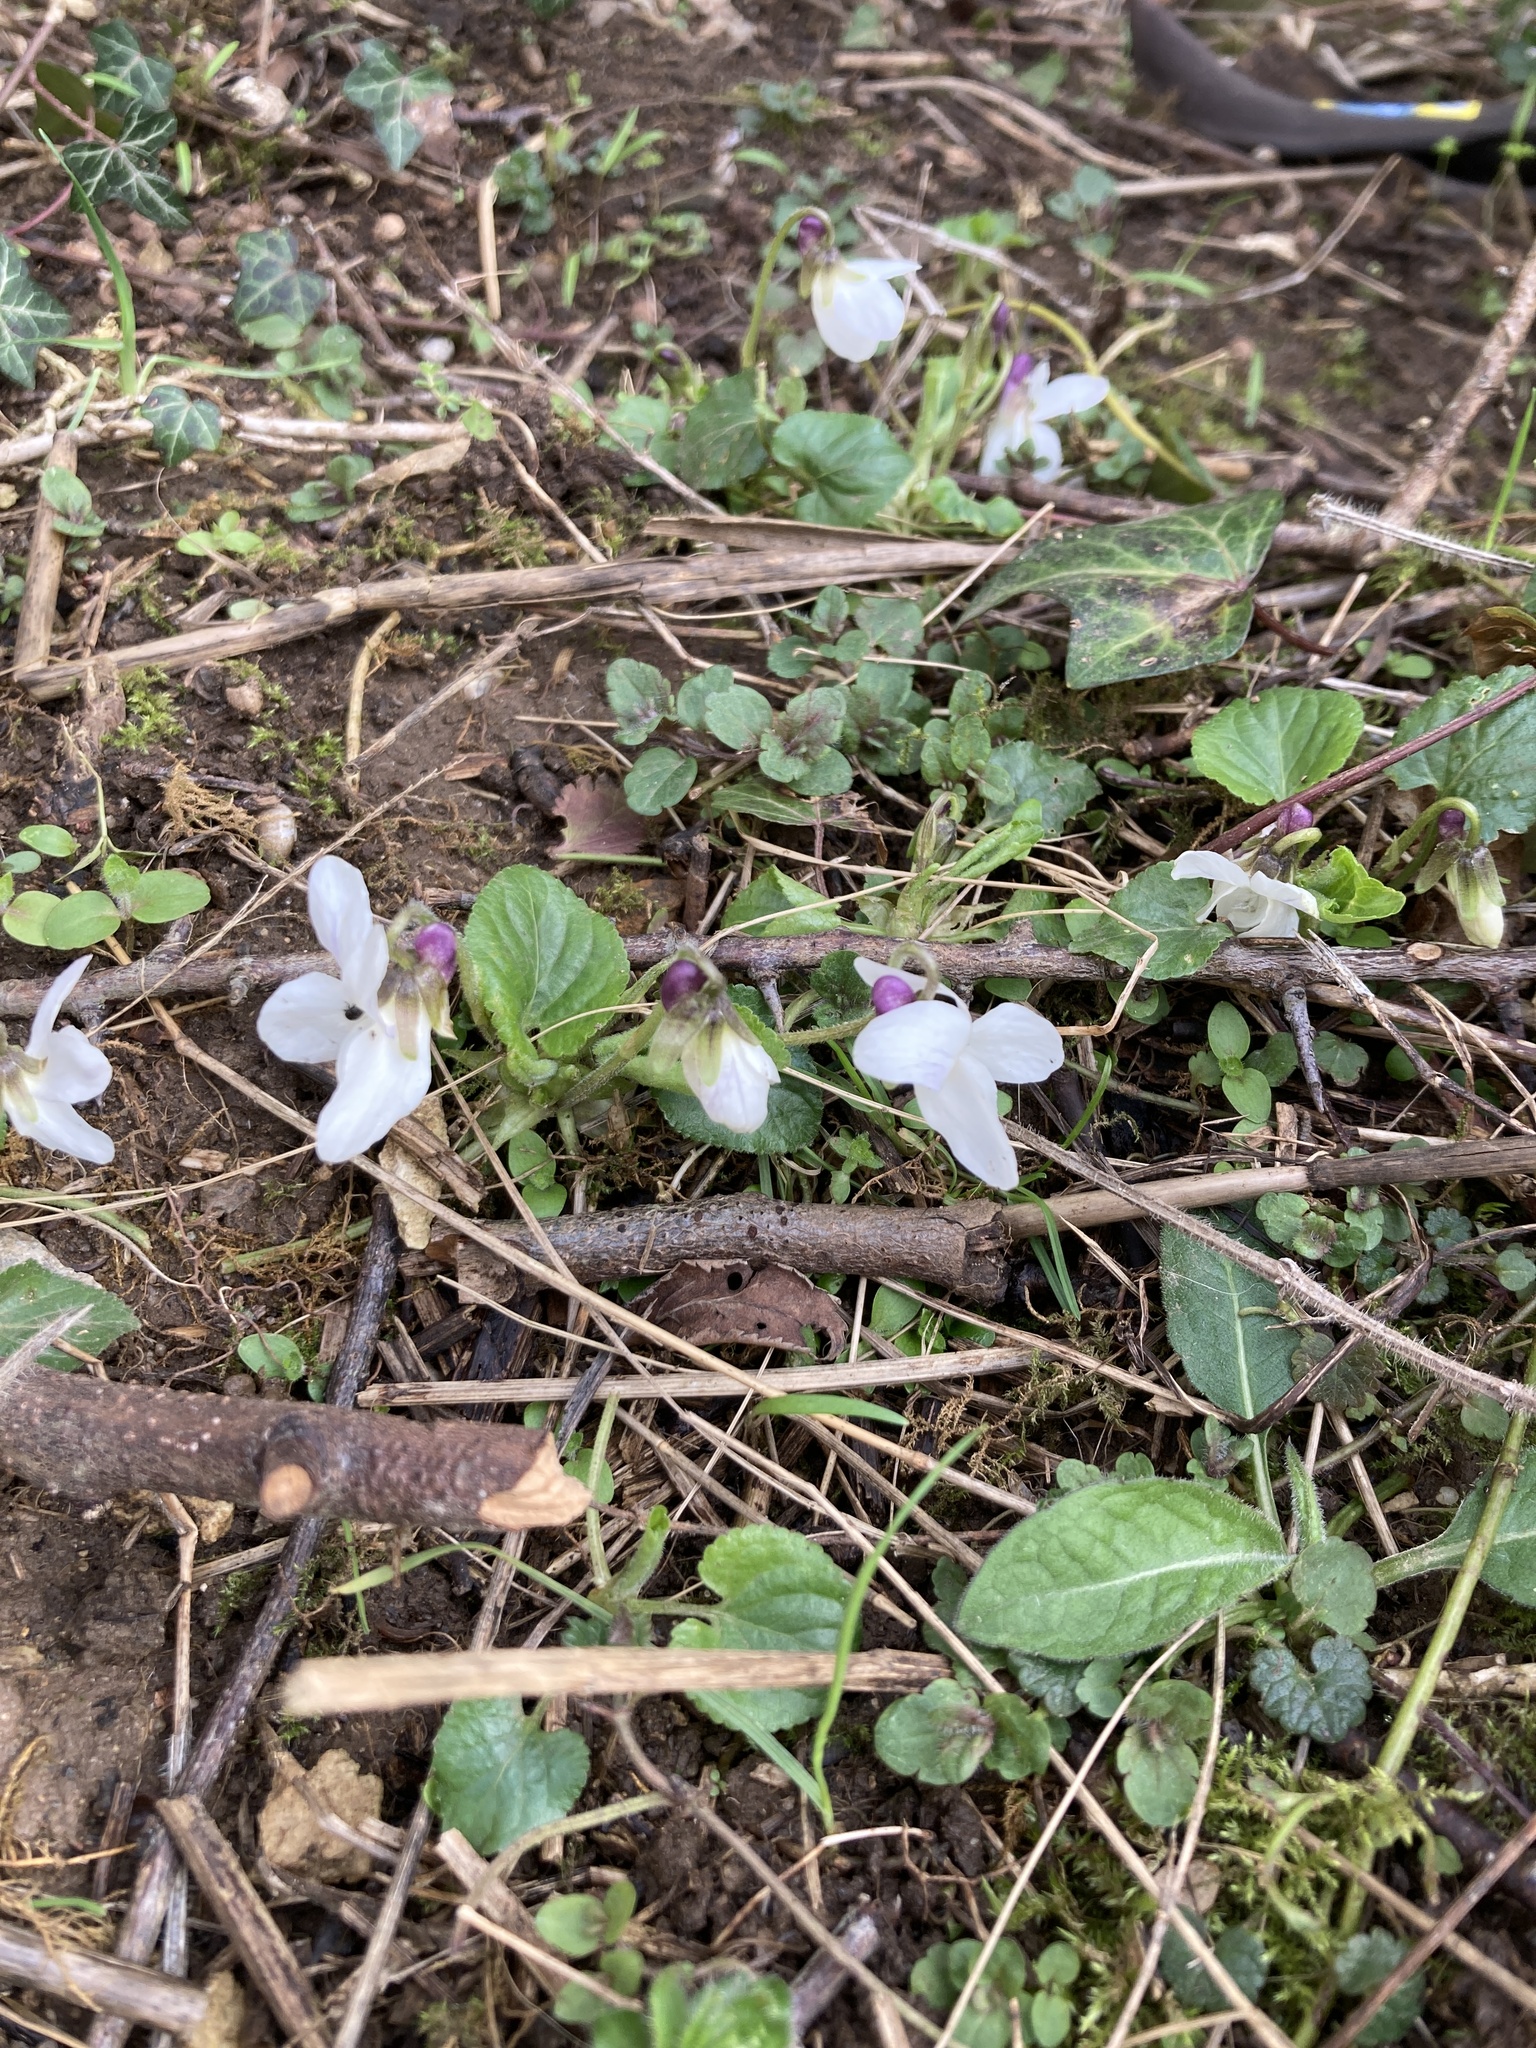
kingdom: Plantae
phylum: Tracheophyta
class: Magnoliopsida
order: Malpighiales
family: Violaceae
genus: Viola
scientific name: Viola odorata
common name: Sweet violet
